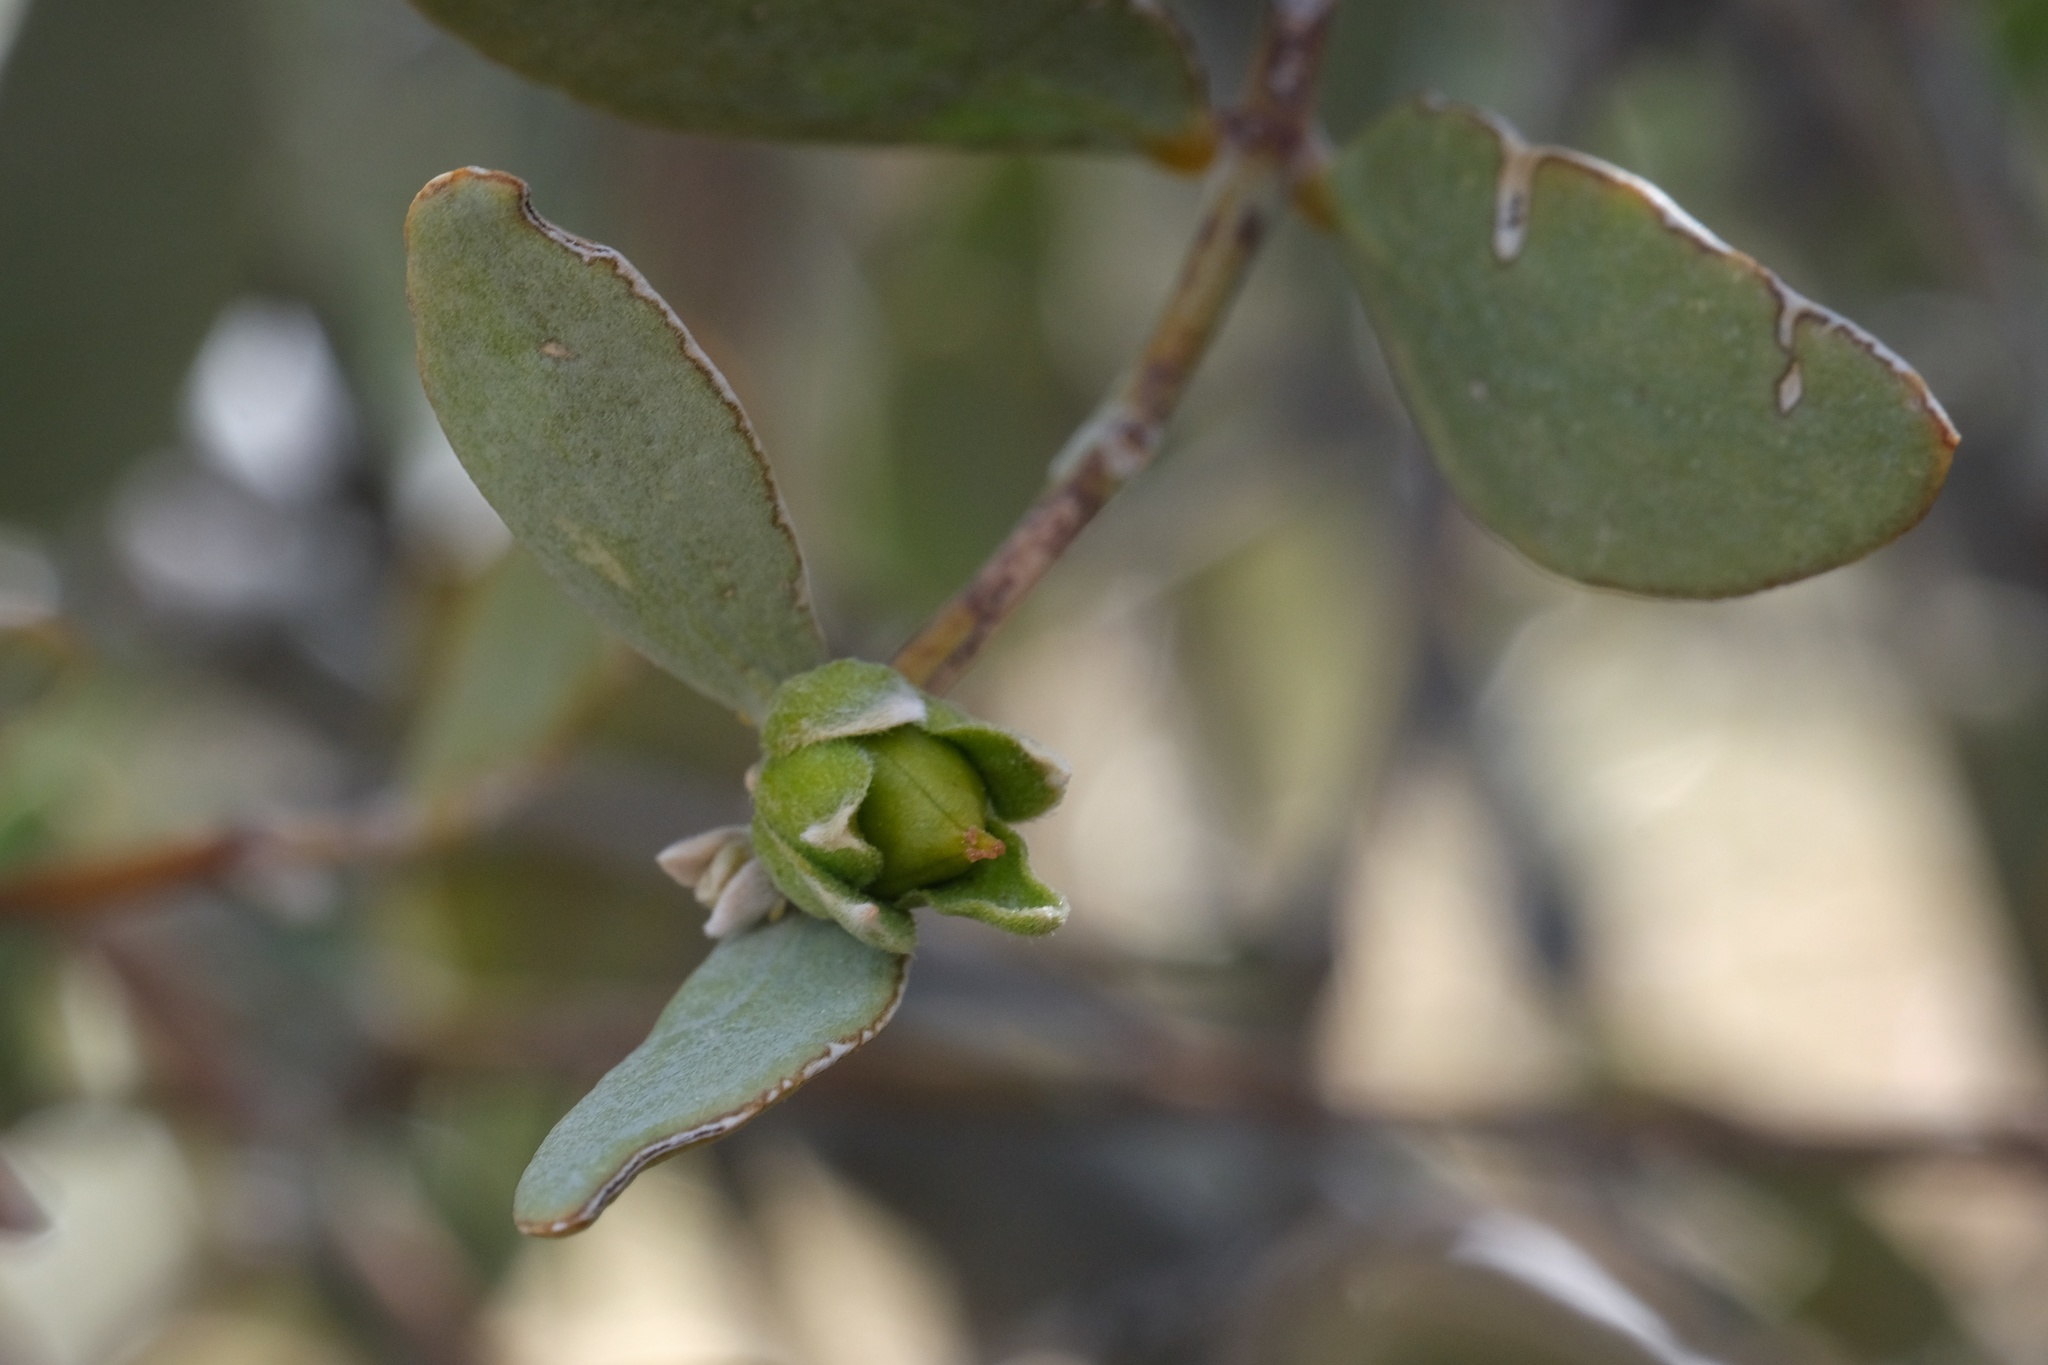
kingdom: Plantae
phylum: Tracheophyta
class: Magnoliopsida
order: Caryophyllales
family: Simmondsiaceae
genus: Simmondsia
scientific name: Simmondsia chinensis
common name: Jojoba
